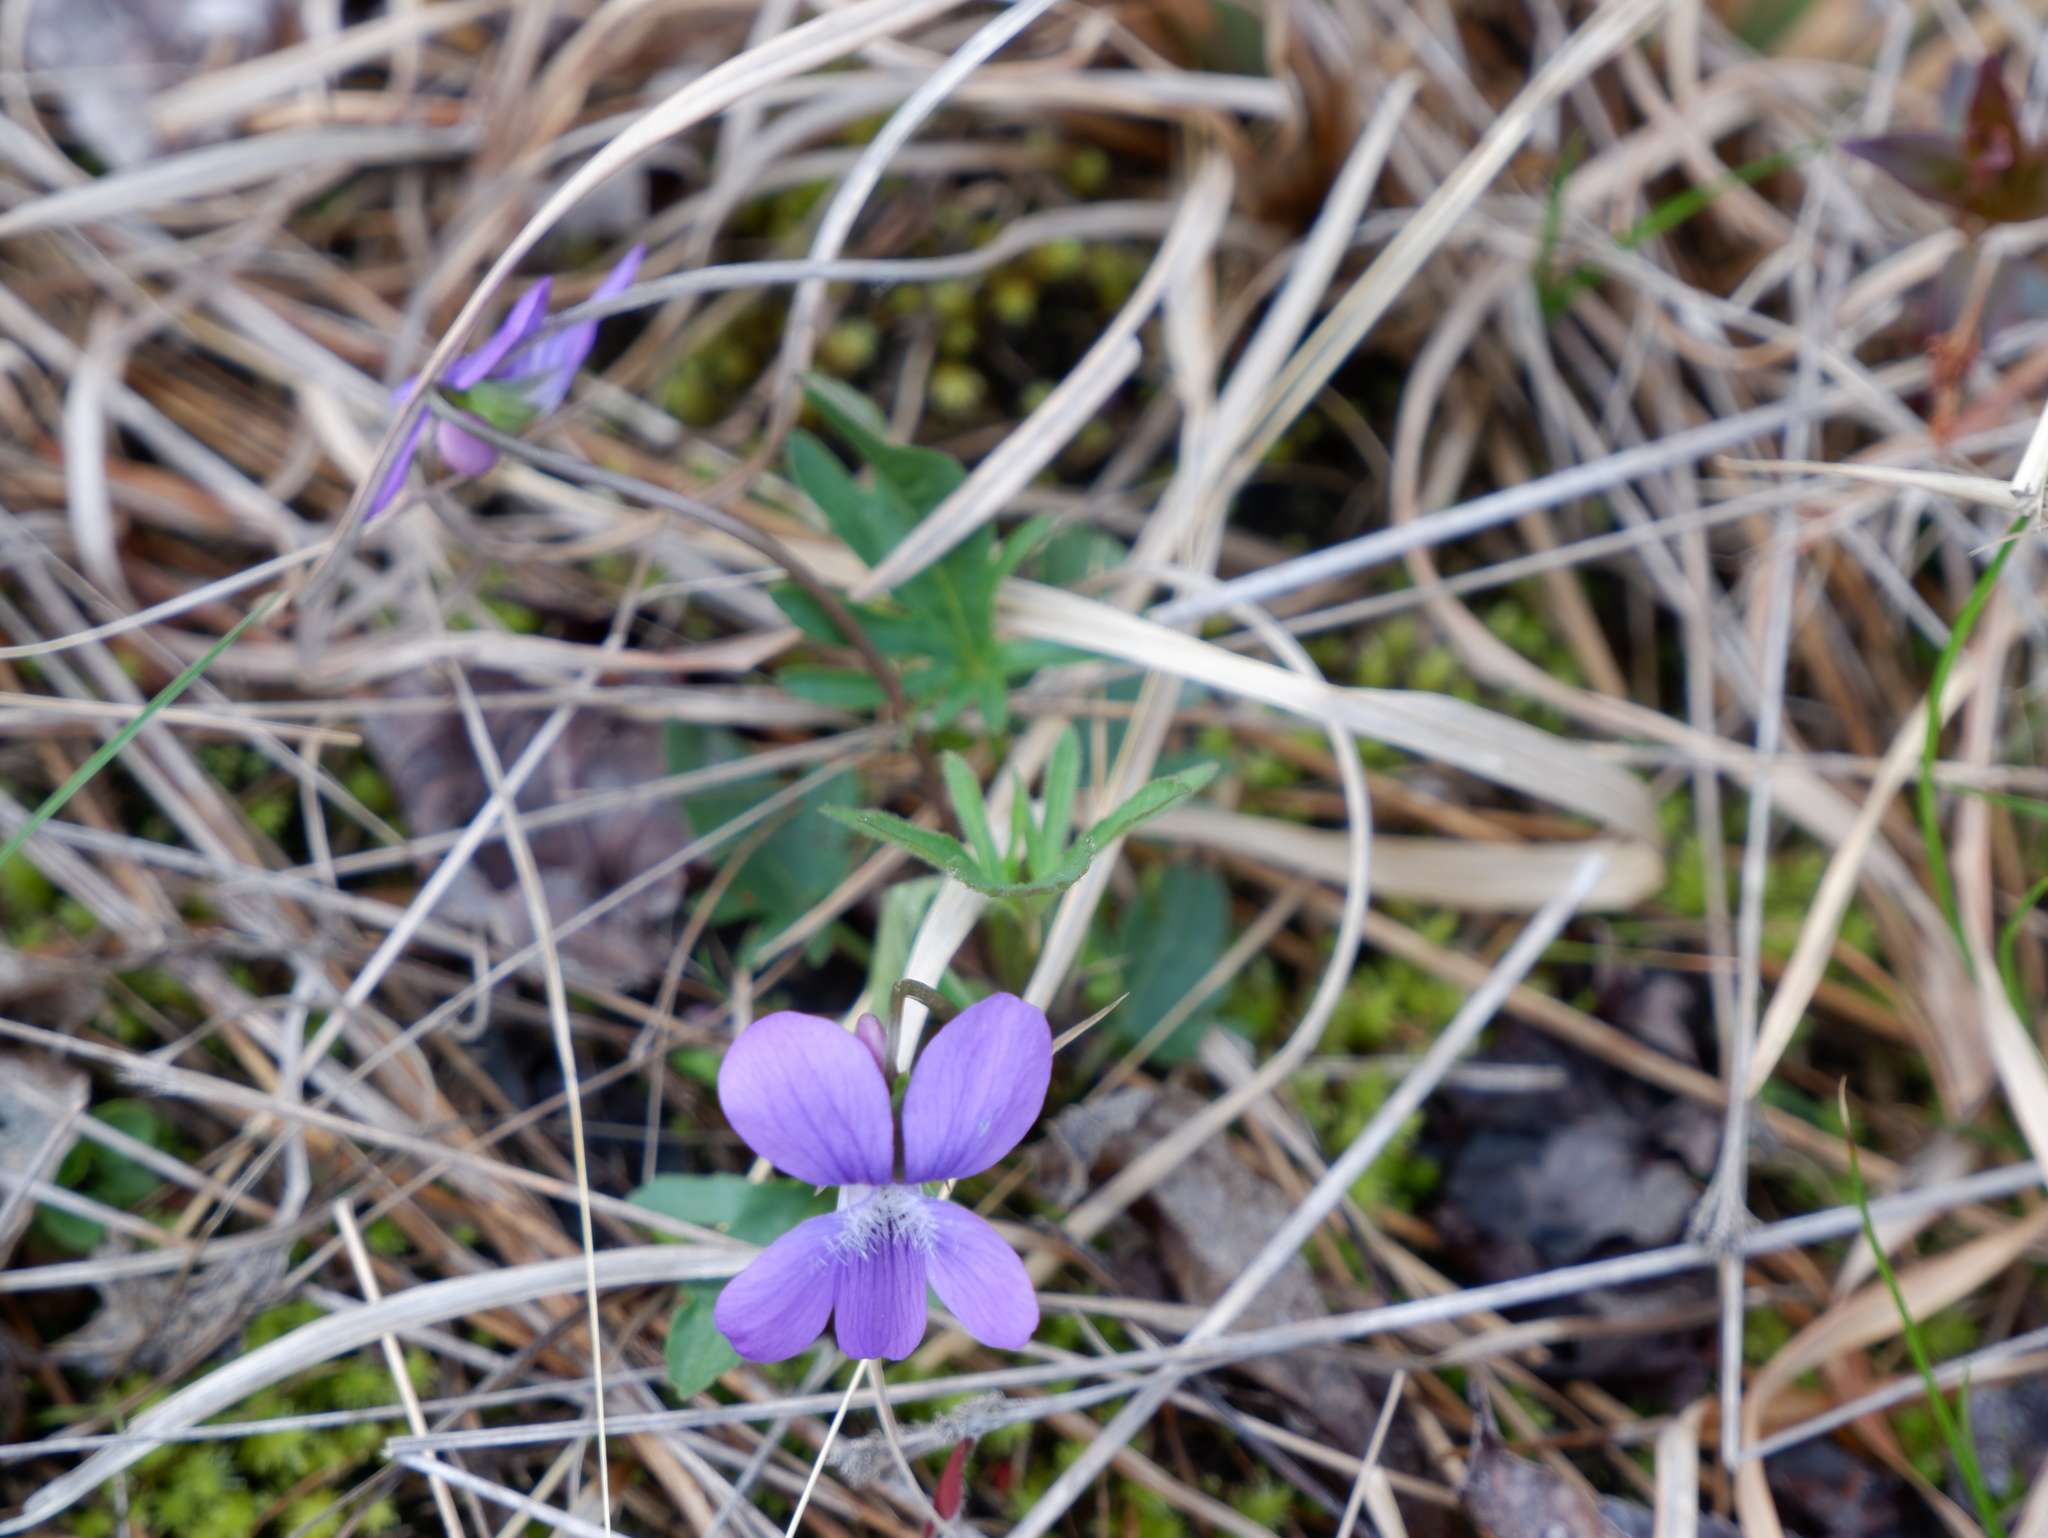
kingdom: Plantae
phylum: Tracheophyta
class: Magnoliopsida
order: Malpighiales
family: Violaceae
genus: Viola
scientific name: Viola brittoniana
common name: Northern coastal violet
